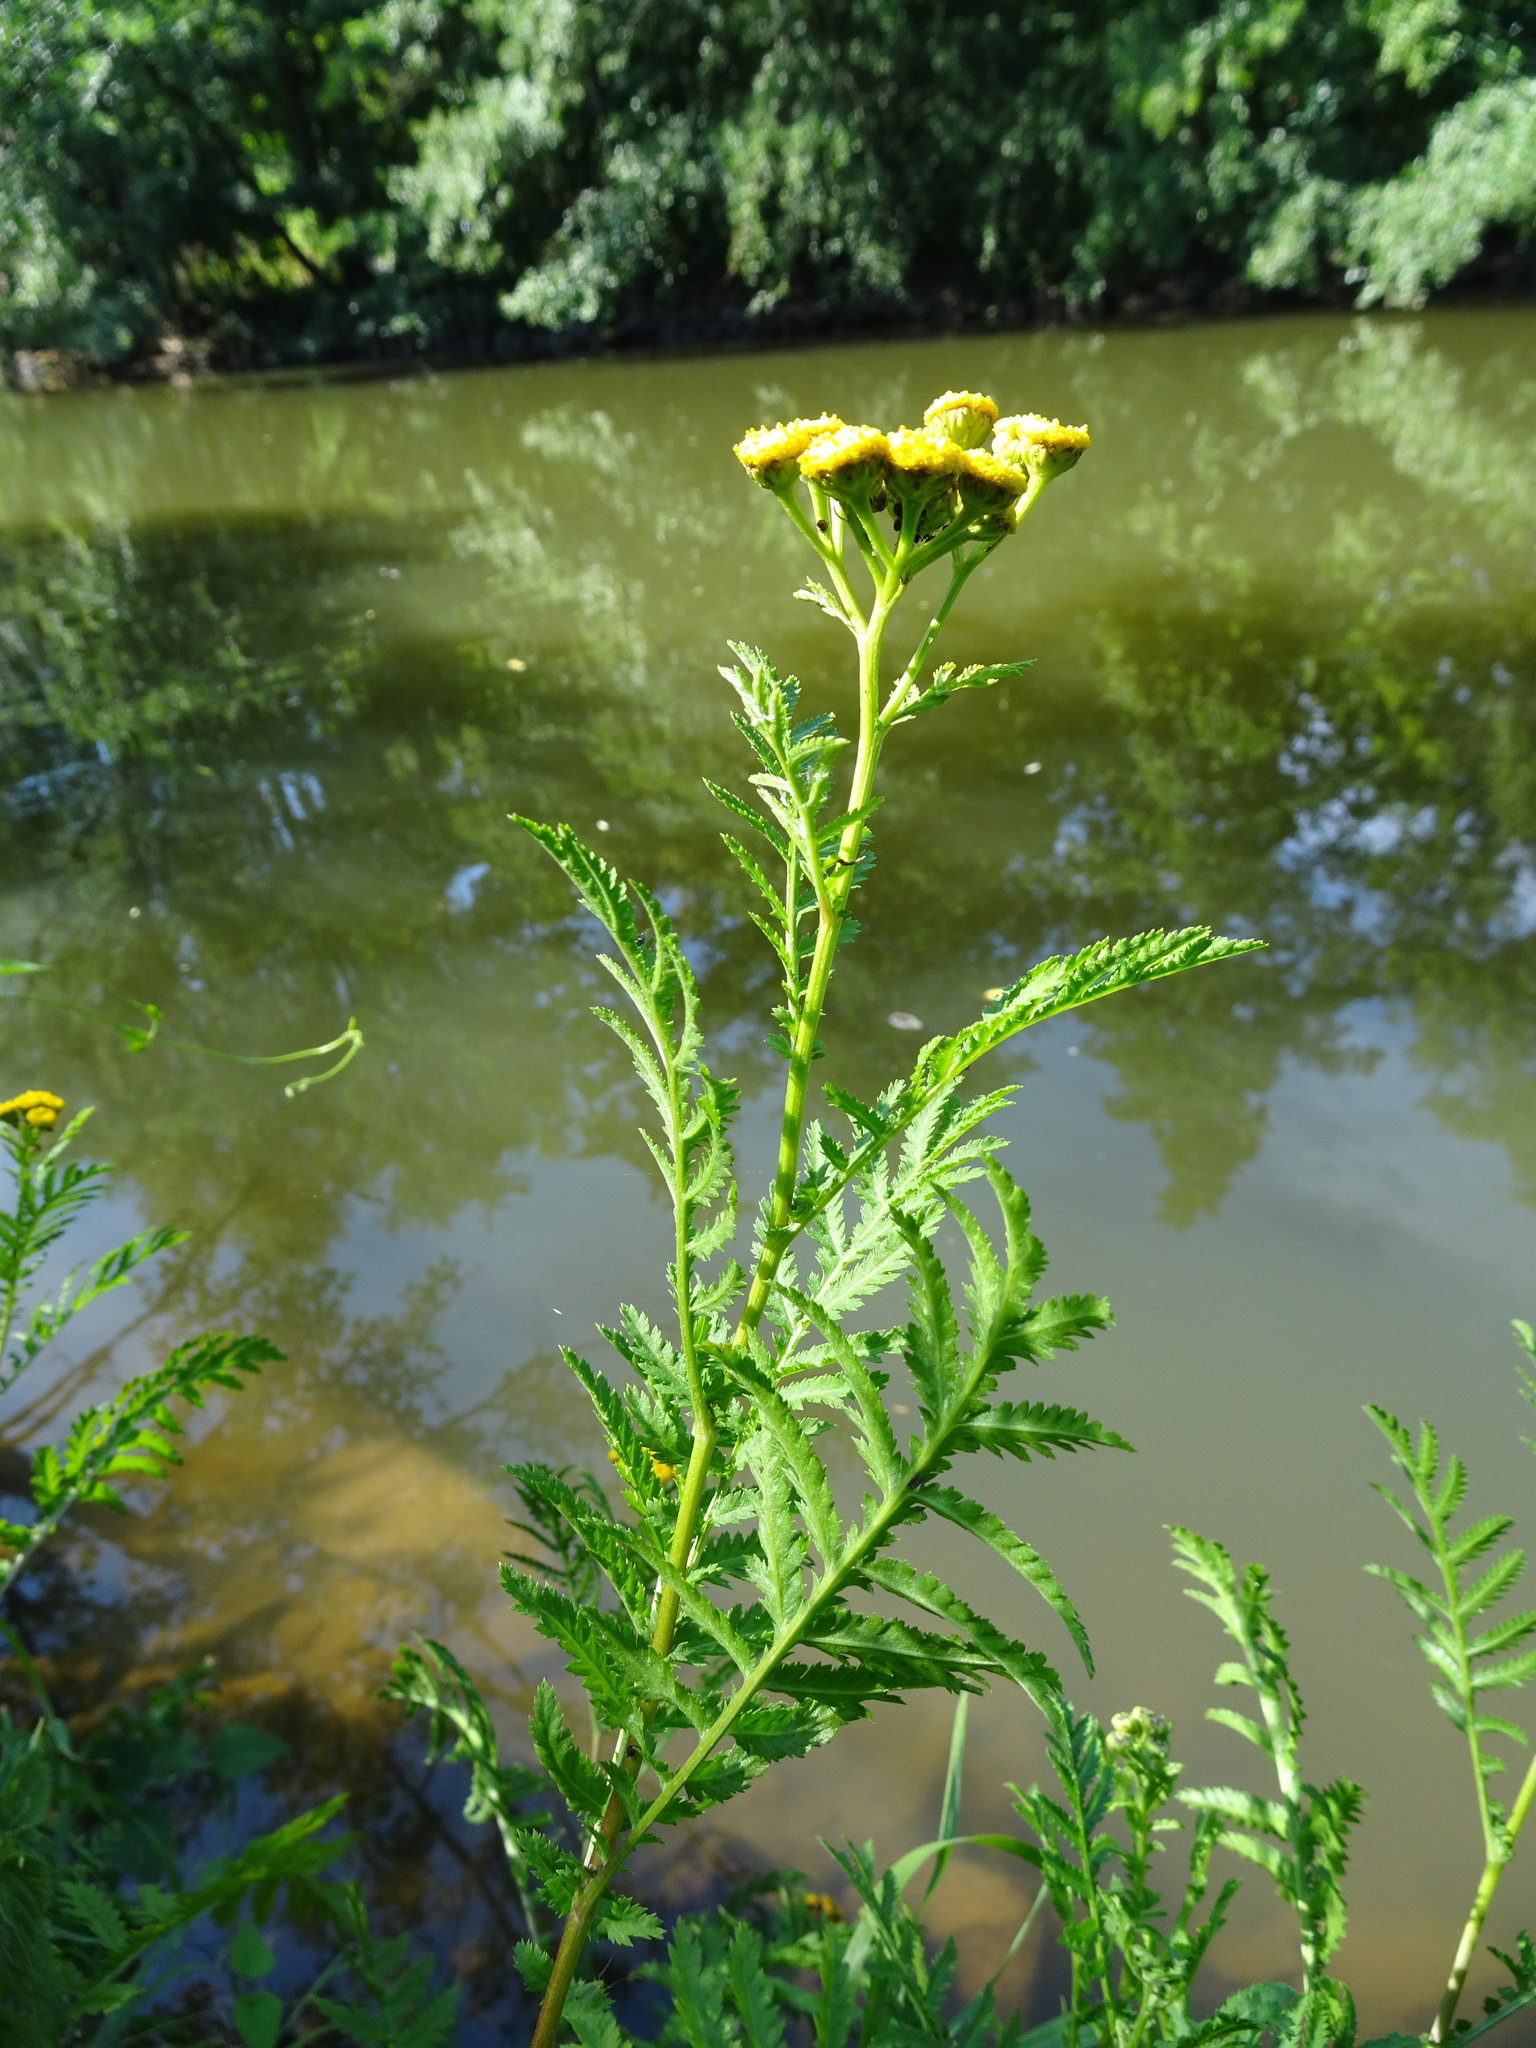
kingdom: Plantae
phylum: Tracheophyta
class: Magnoliopsida
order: Asterales
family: Asteraceae
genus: Tanacetum
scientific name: Tanacetum vulgare
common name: Common tansy
